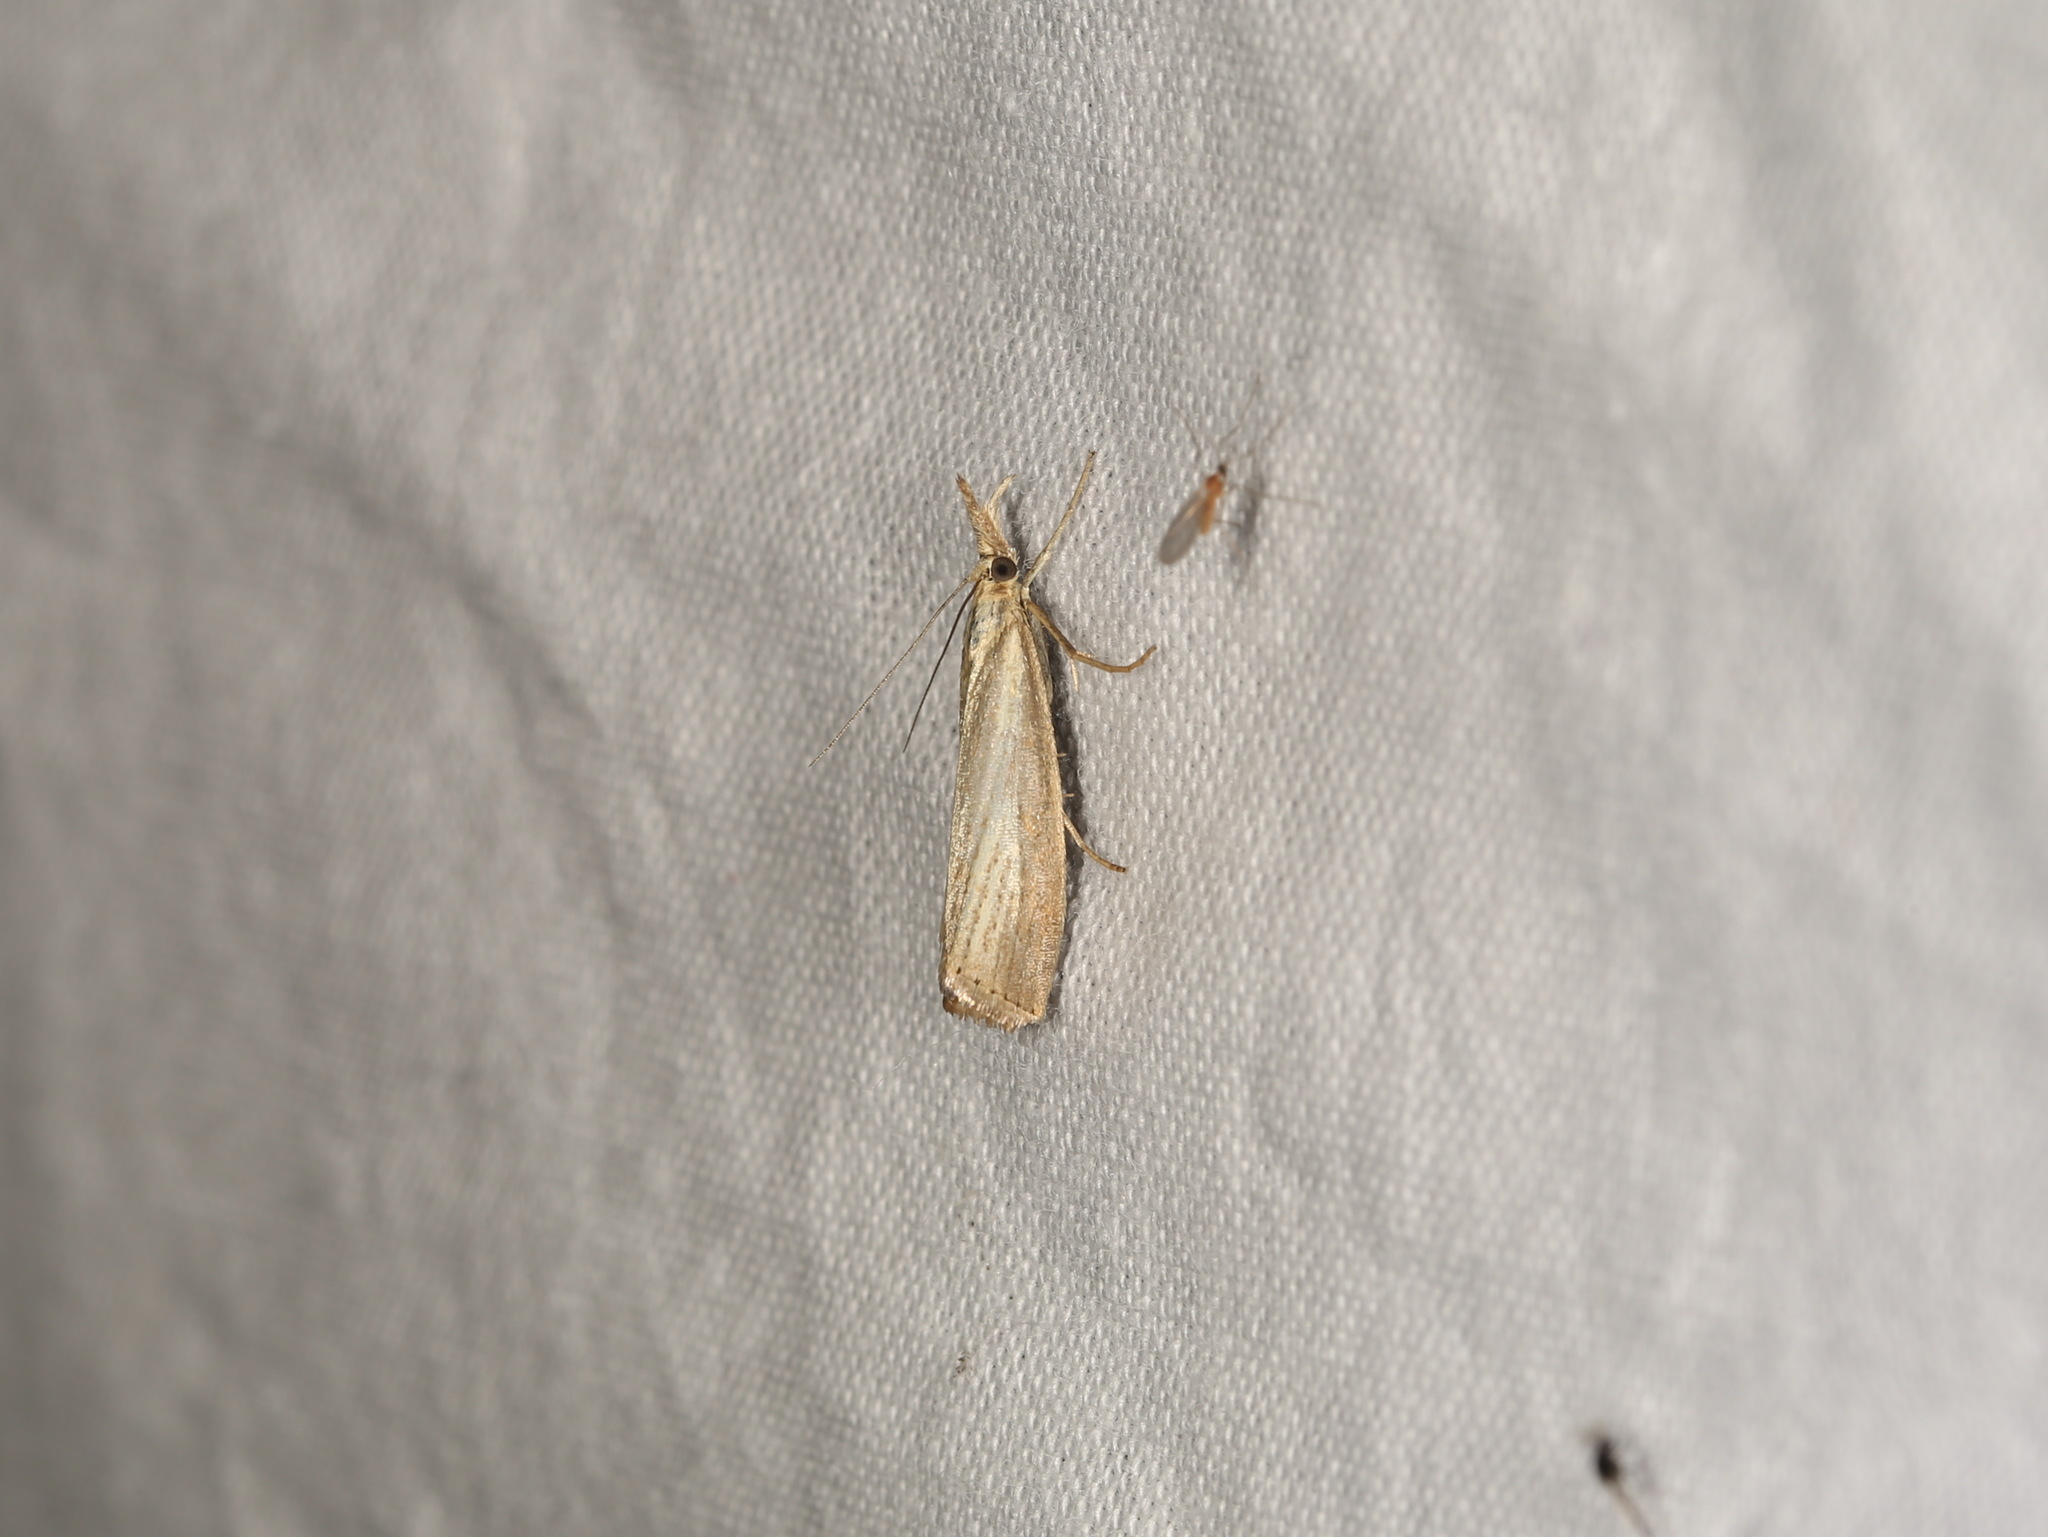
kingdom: Animalia
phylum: Arthropoda
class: Insecta
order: Lepidoptera
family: Crambidae
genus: Agriphila
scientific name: Agriphila straminella
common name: Straw grass-veneer
